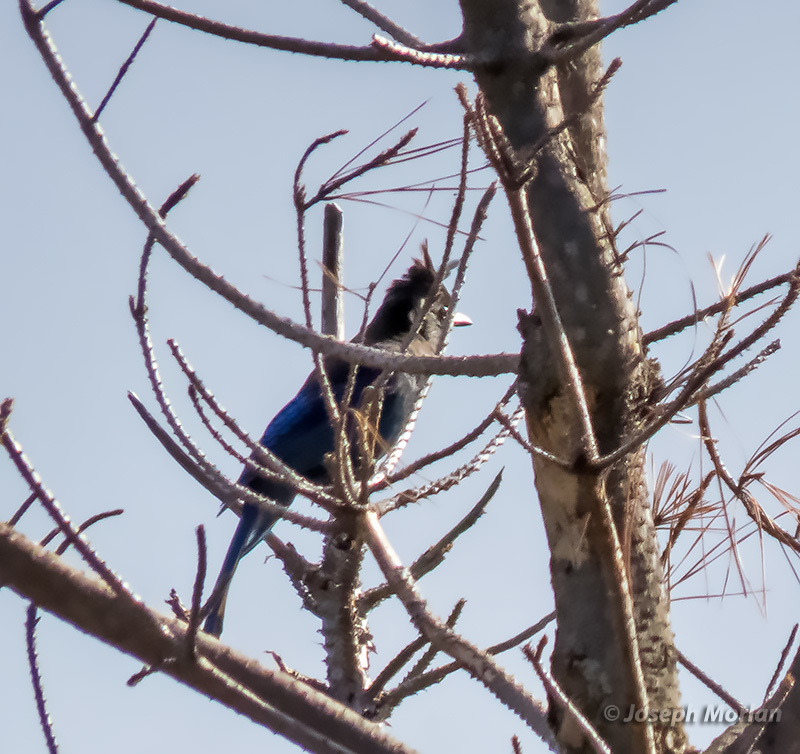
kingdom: Animalia
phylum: Chordata
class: Aves
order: Passeriformes
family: Corvidae
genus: Cyanocitta
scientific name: Cyanocitta stelleri
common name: Steller's jay
